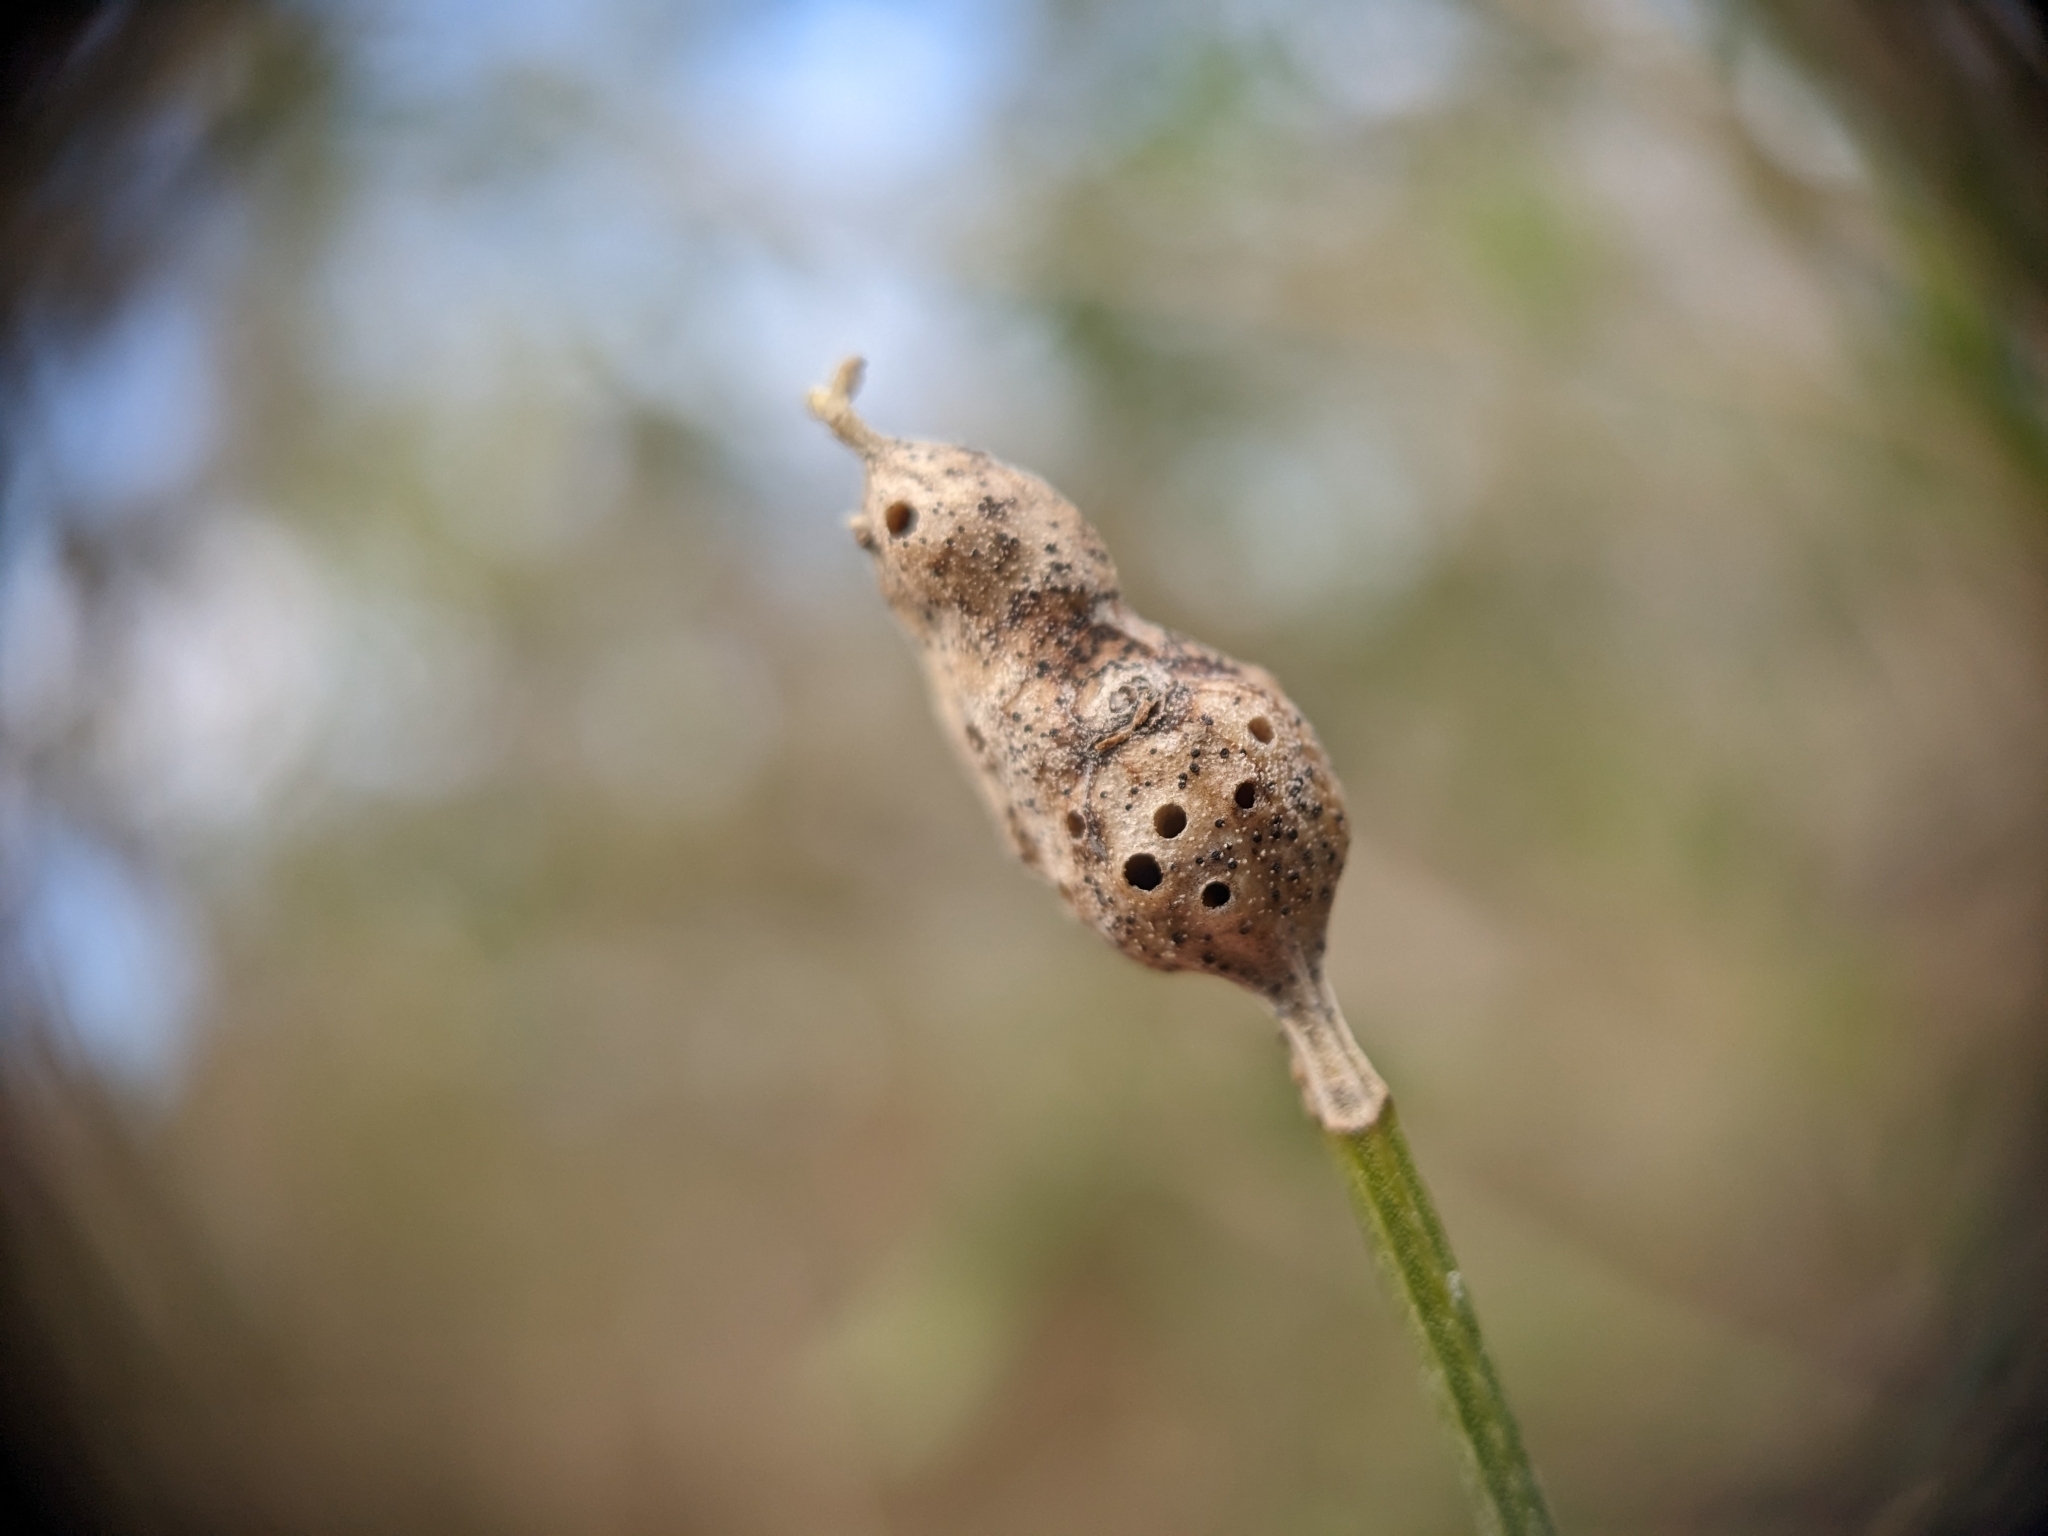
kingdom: Animalia
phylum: Arthropoda
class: Insecta
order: Diptera
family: Cecidomyiidae
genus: Neolasioptera
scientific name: Neolasioptera lathami
